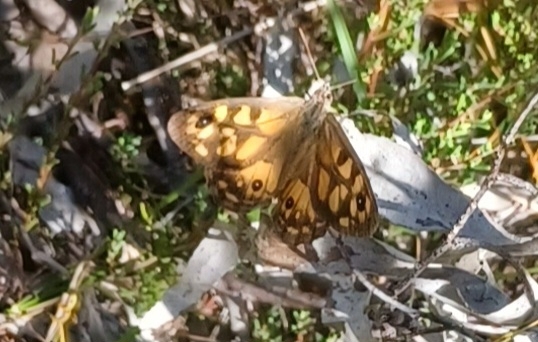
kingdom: Animalia
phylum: Arthropoda
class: Insecta
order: Lepidoptera
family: Nymphalidae
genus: Geitoneura
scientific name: Geitoneura klugii
